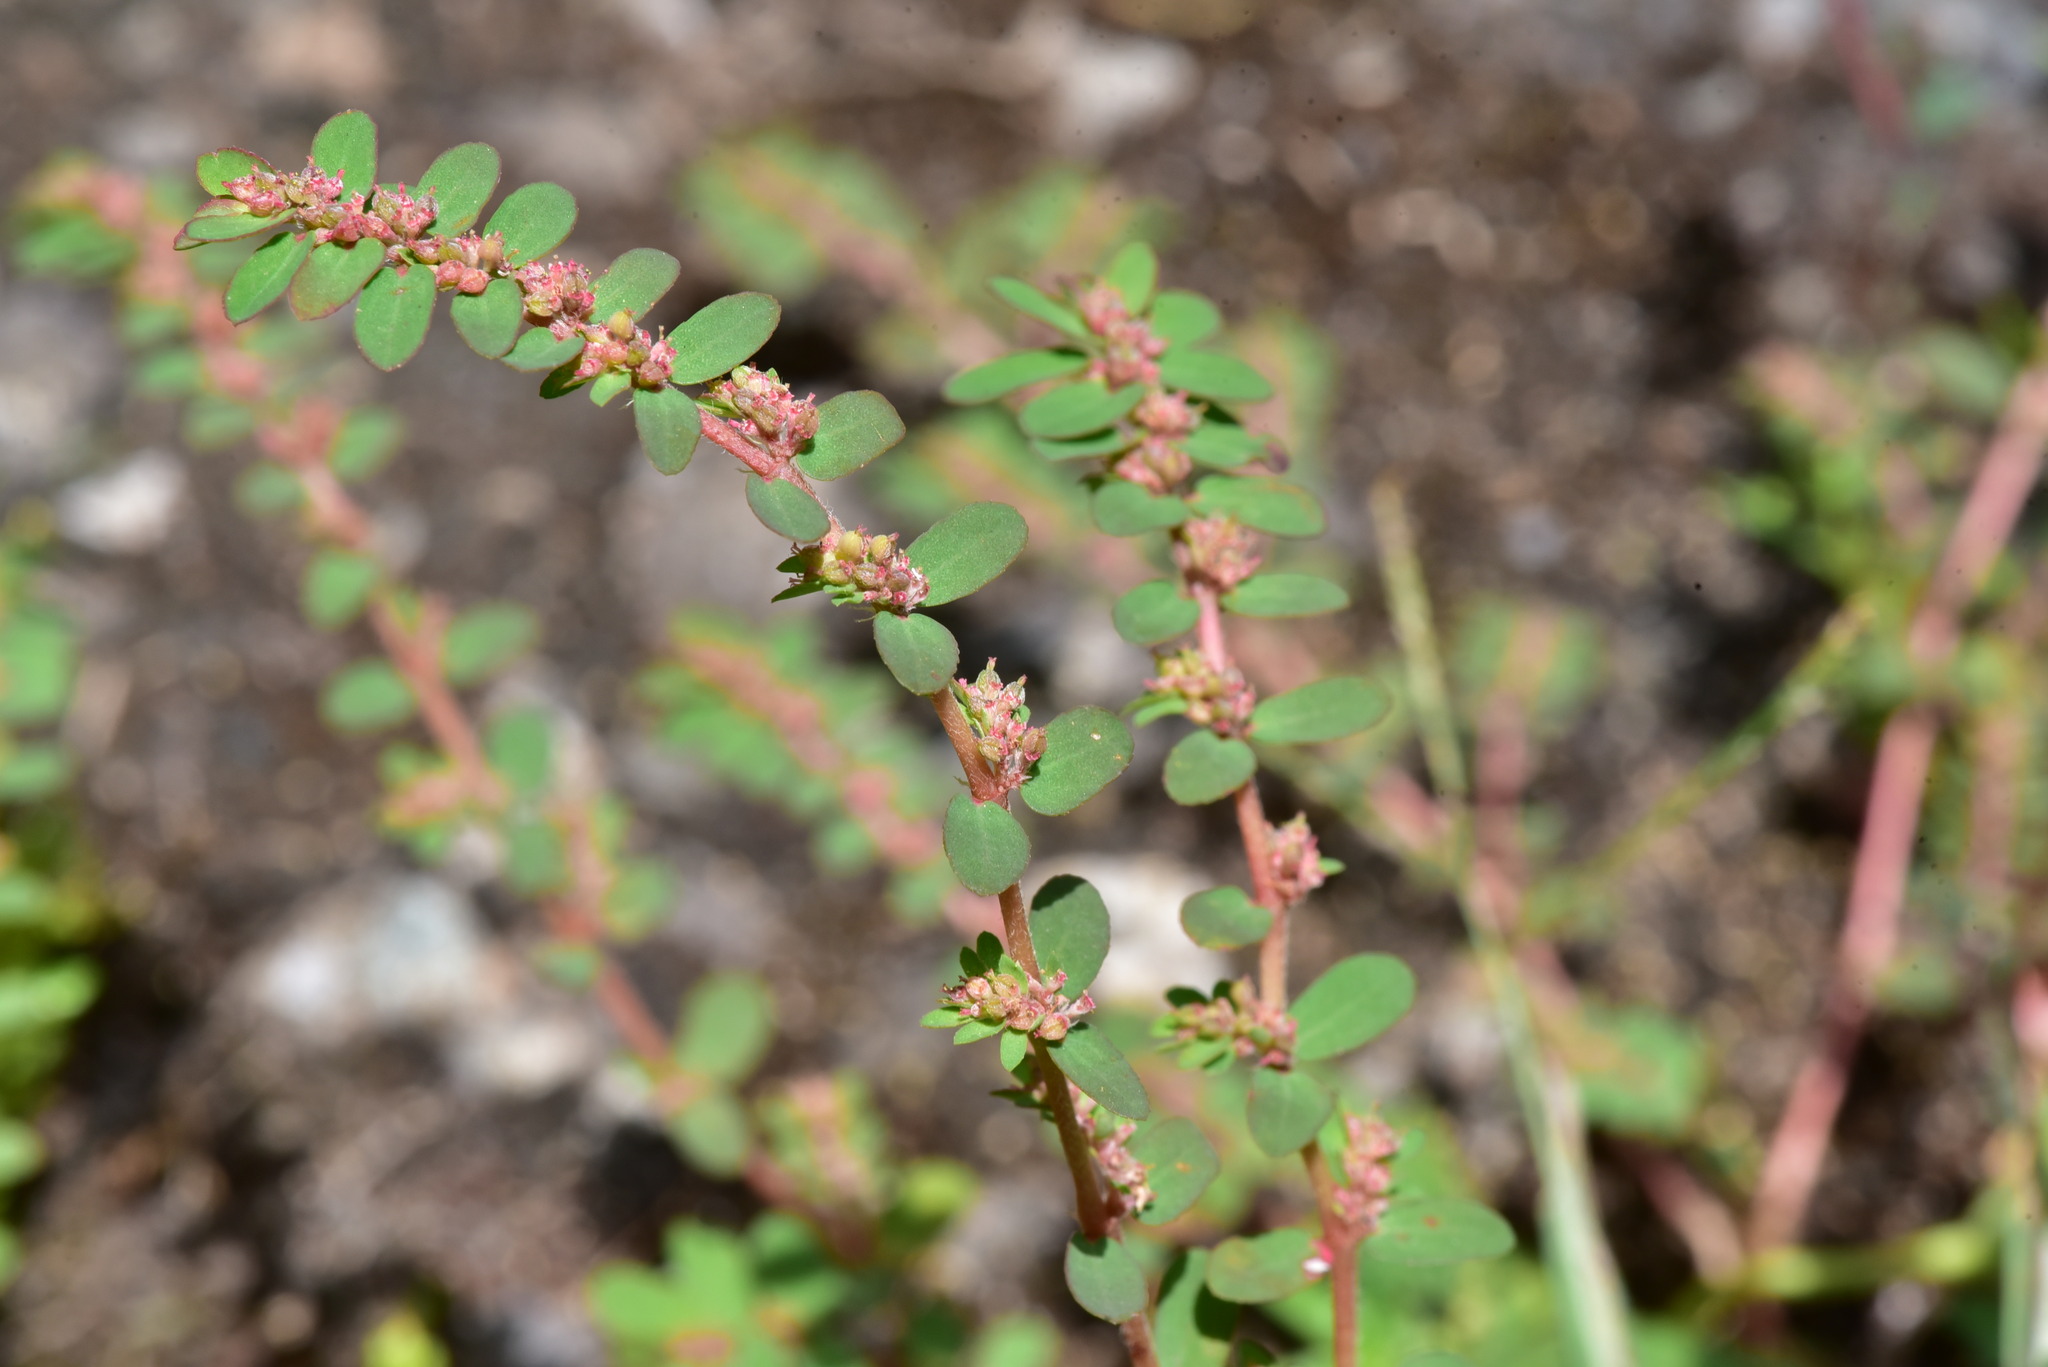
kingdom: Plantae
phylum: Tracheophyta
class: Magnoliopsida
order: Malpighiales
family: Euphorbiaceae
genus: Euphorbia
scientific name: Euphorbia thymifolia
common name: Gulf sandmat
